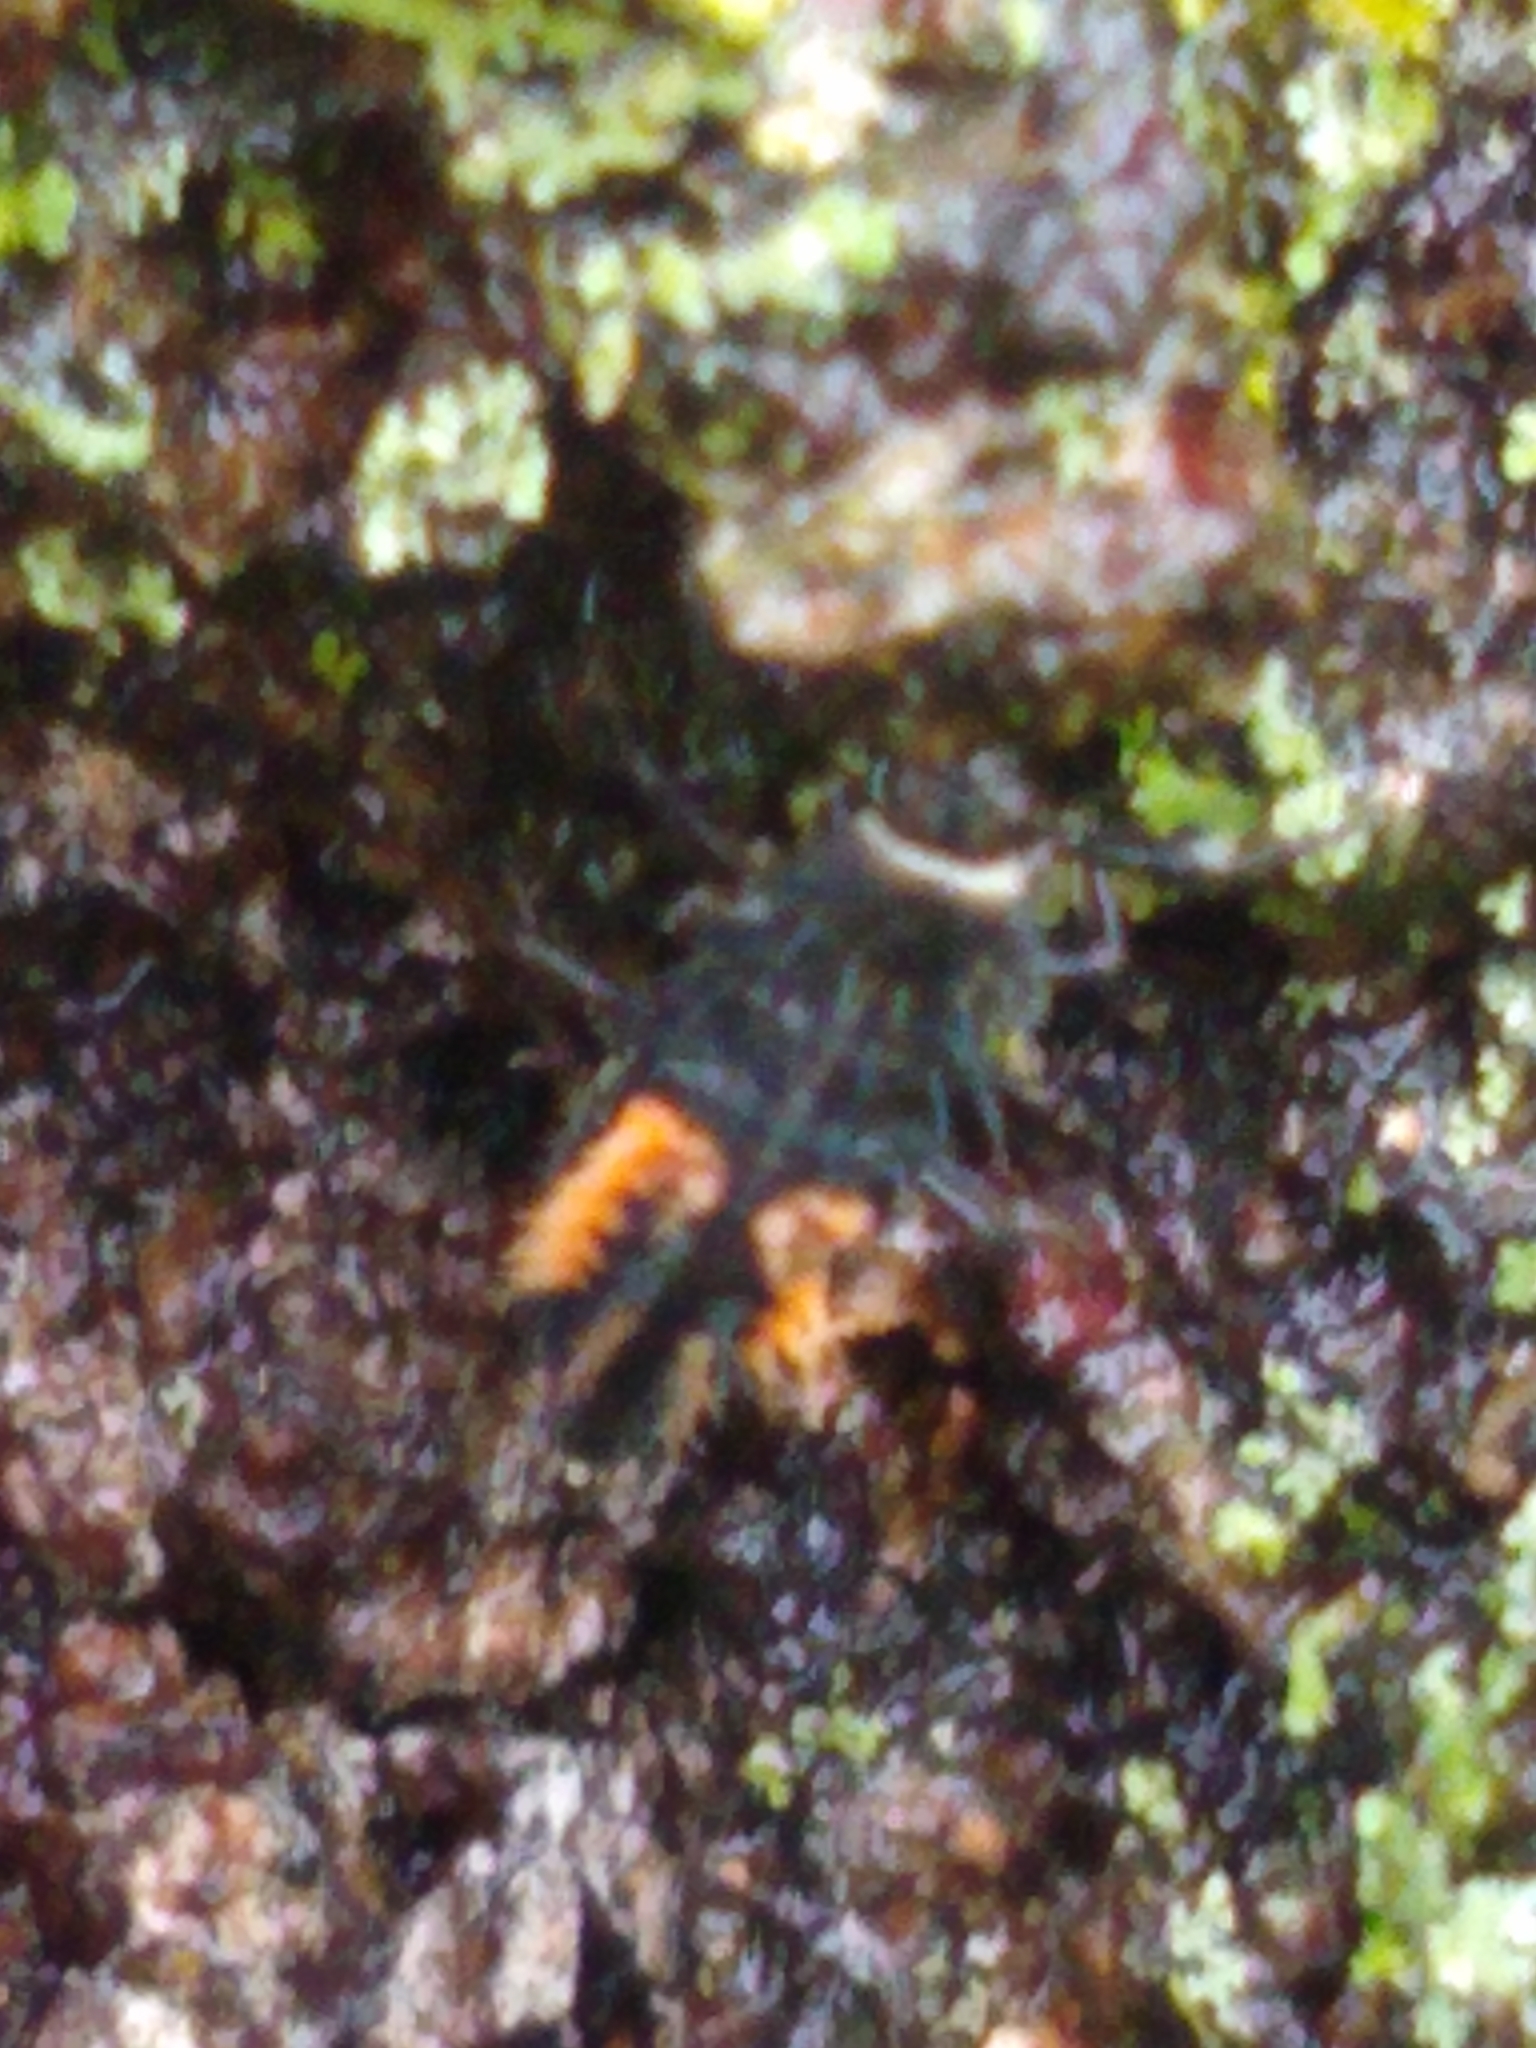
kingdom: Animalia
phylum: Arthropoda
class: Insecta
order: Coleoptera
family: Coccinellidae
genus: Harmonia
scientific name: Harmonia axyridis
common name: Harlequin ladybird
